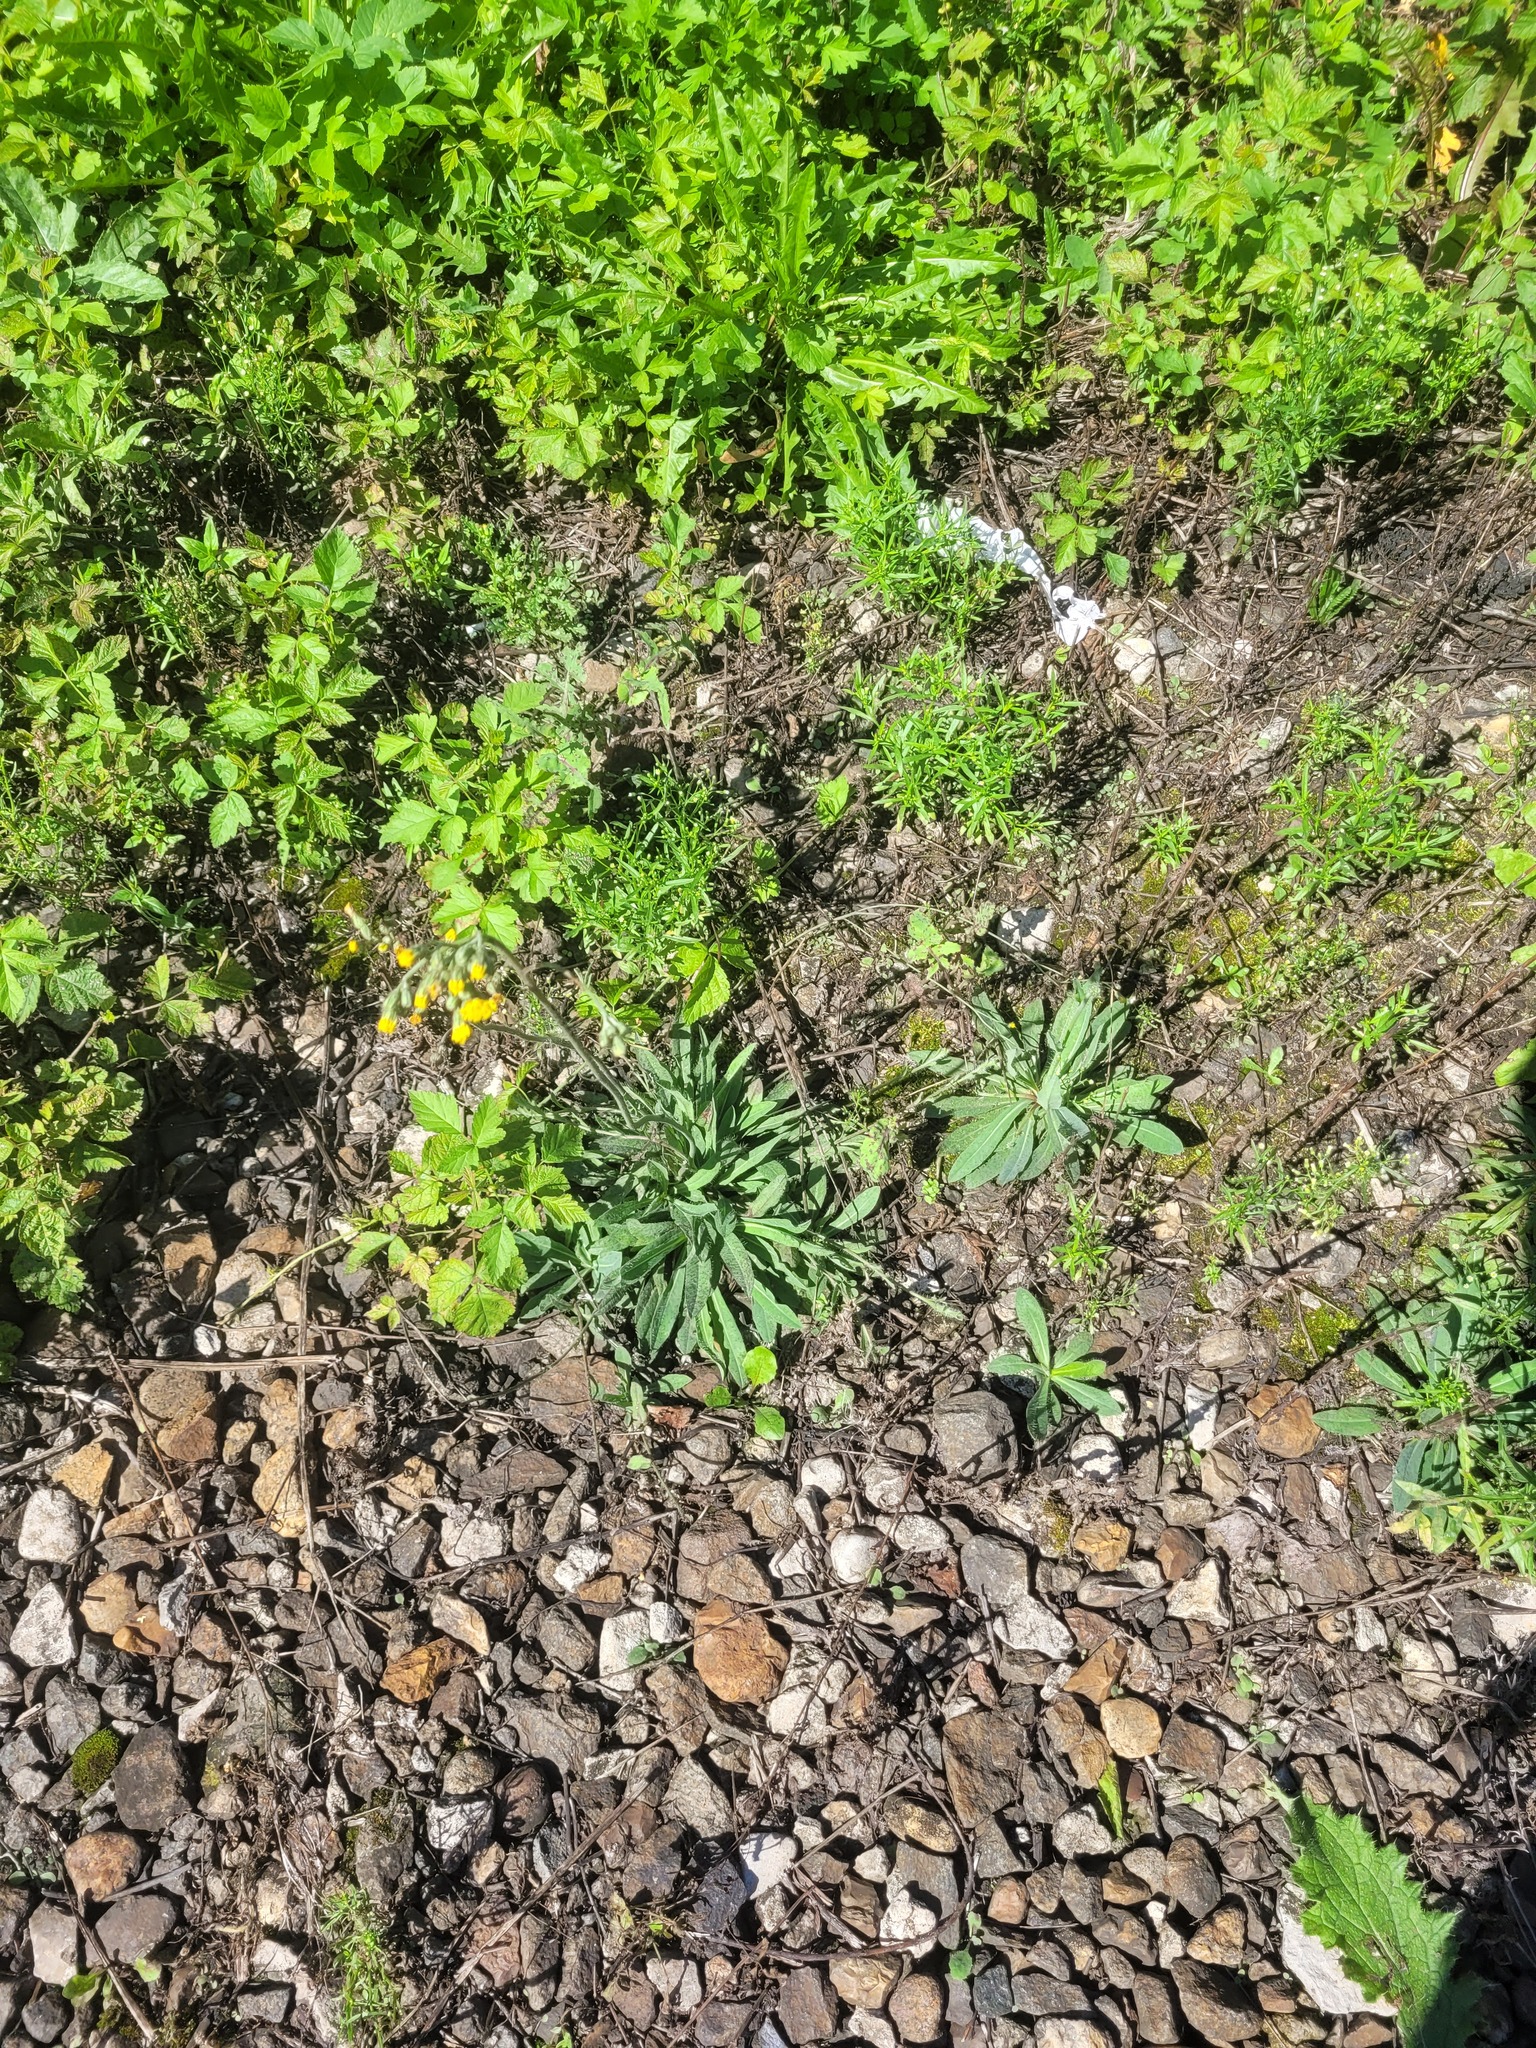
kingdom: Plantae
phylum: Tracheophyta
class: Magnoliopsida
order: Asterales
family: Asteraceae
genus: Pilosella
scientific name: Pilosella
